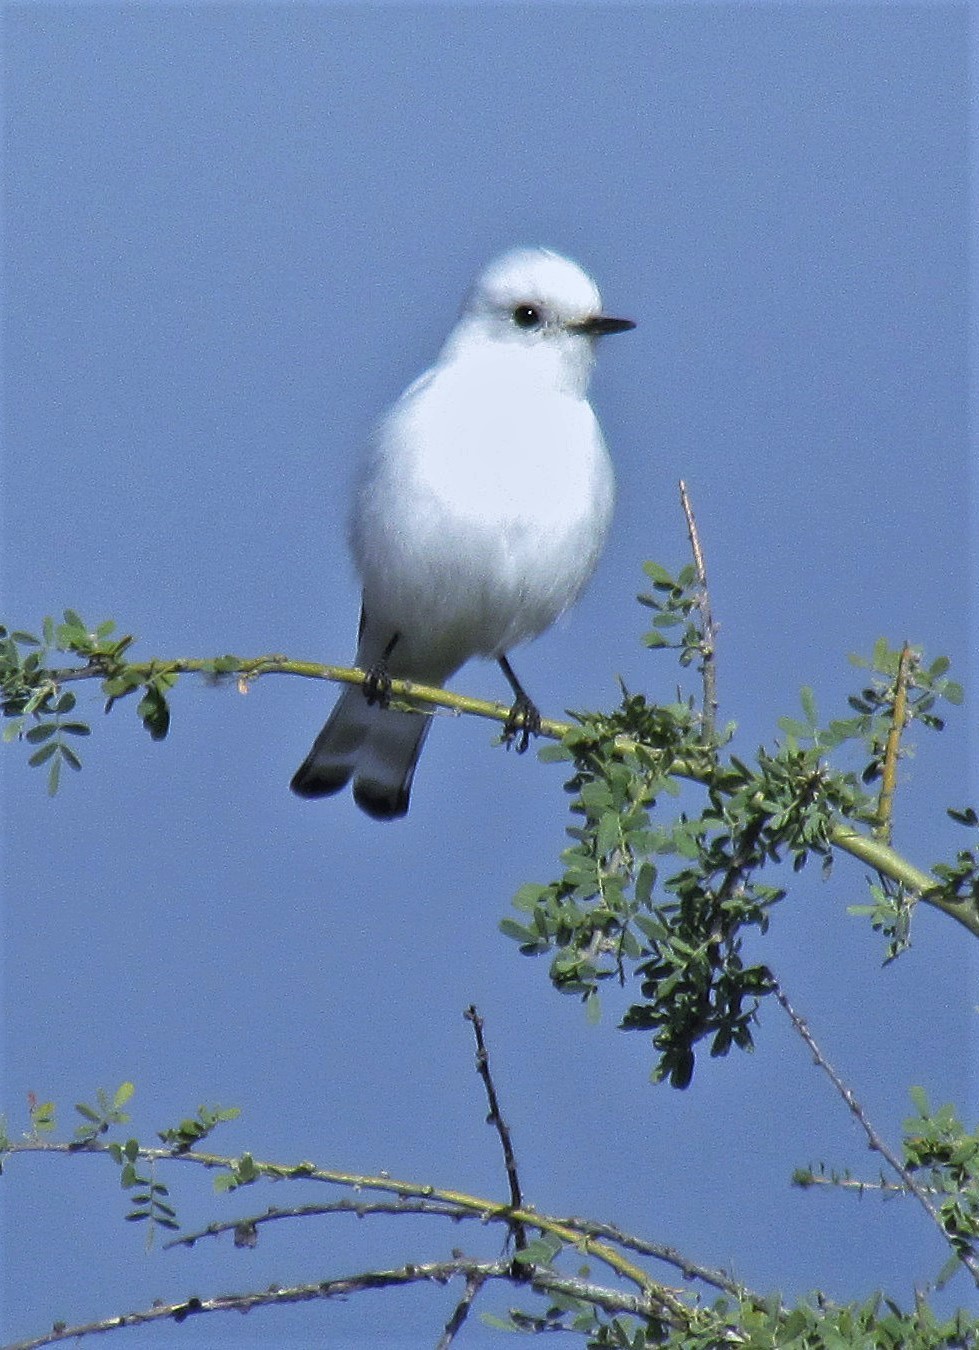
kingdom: Animalia
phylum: Chordata
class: Aves
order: Passeriformes
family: Tyrannidae
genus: Xolmis
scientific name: Xolmis irupero
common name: White monjita
